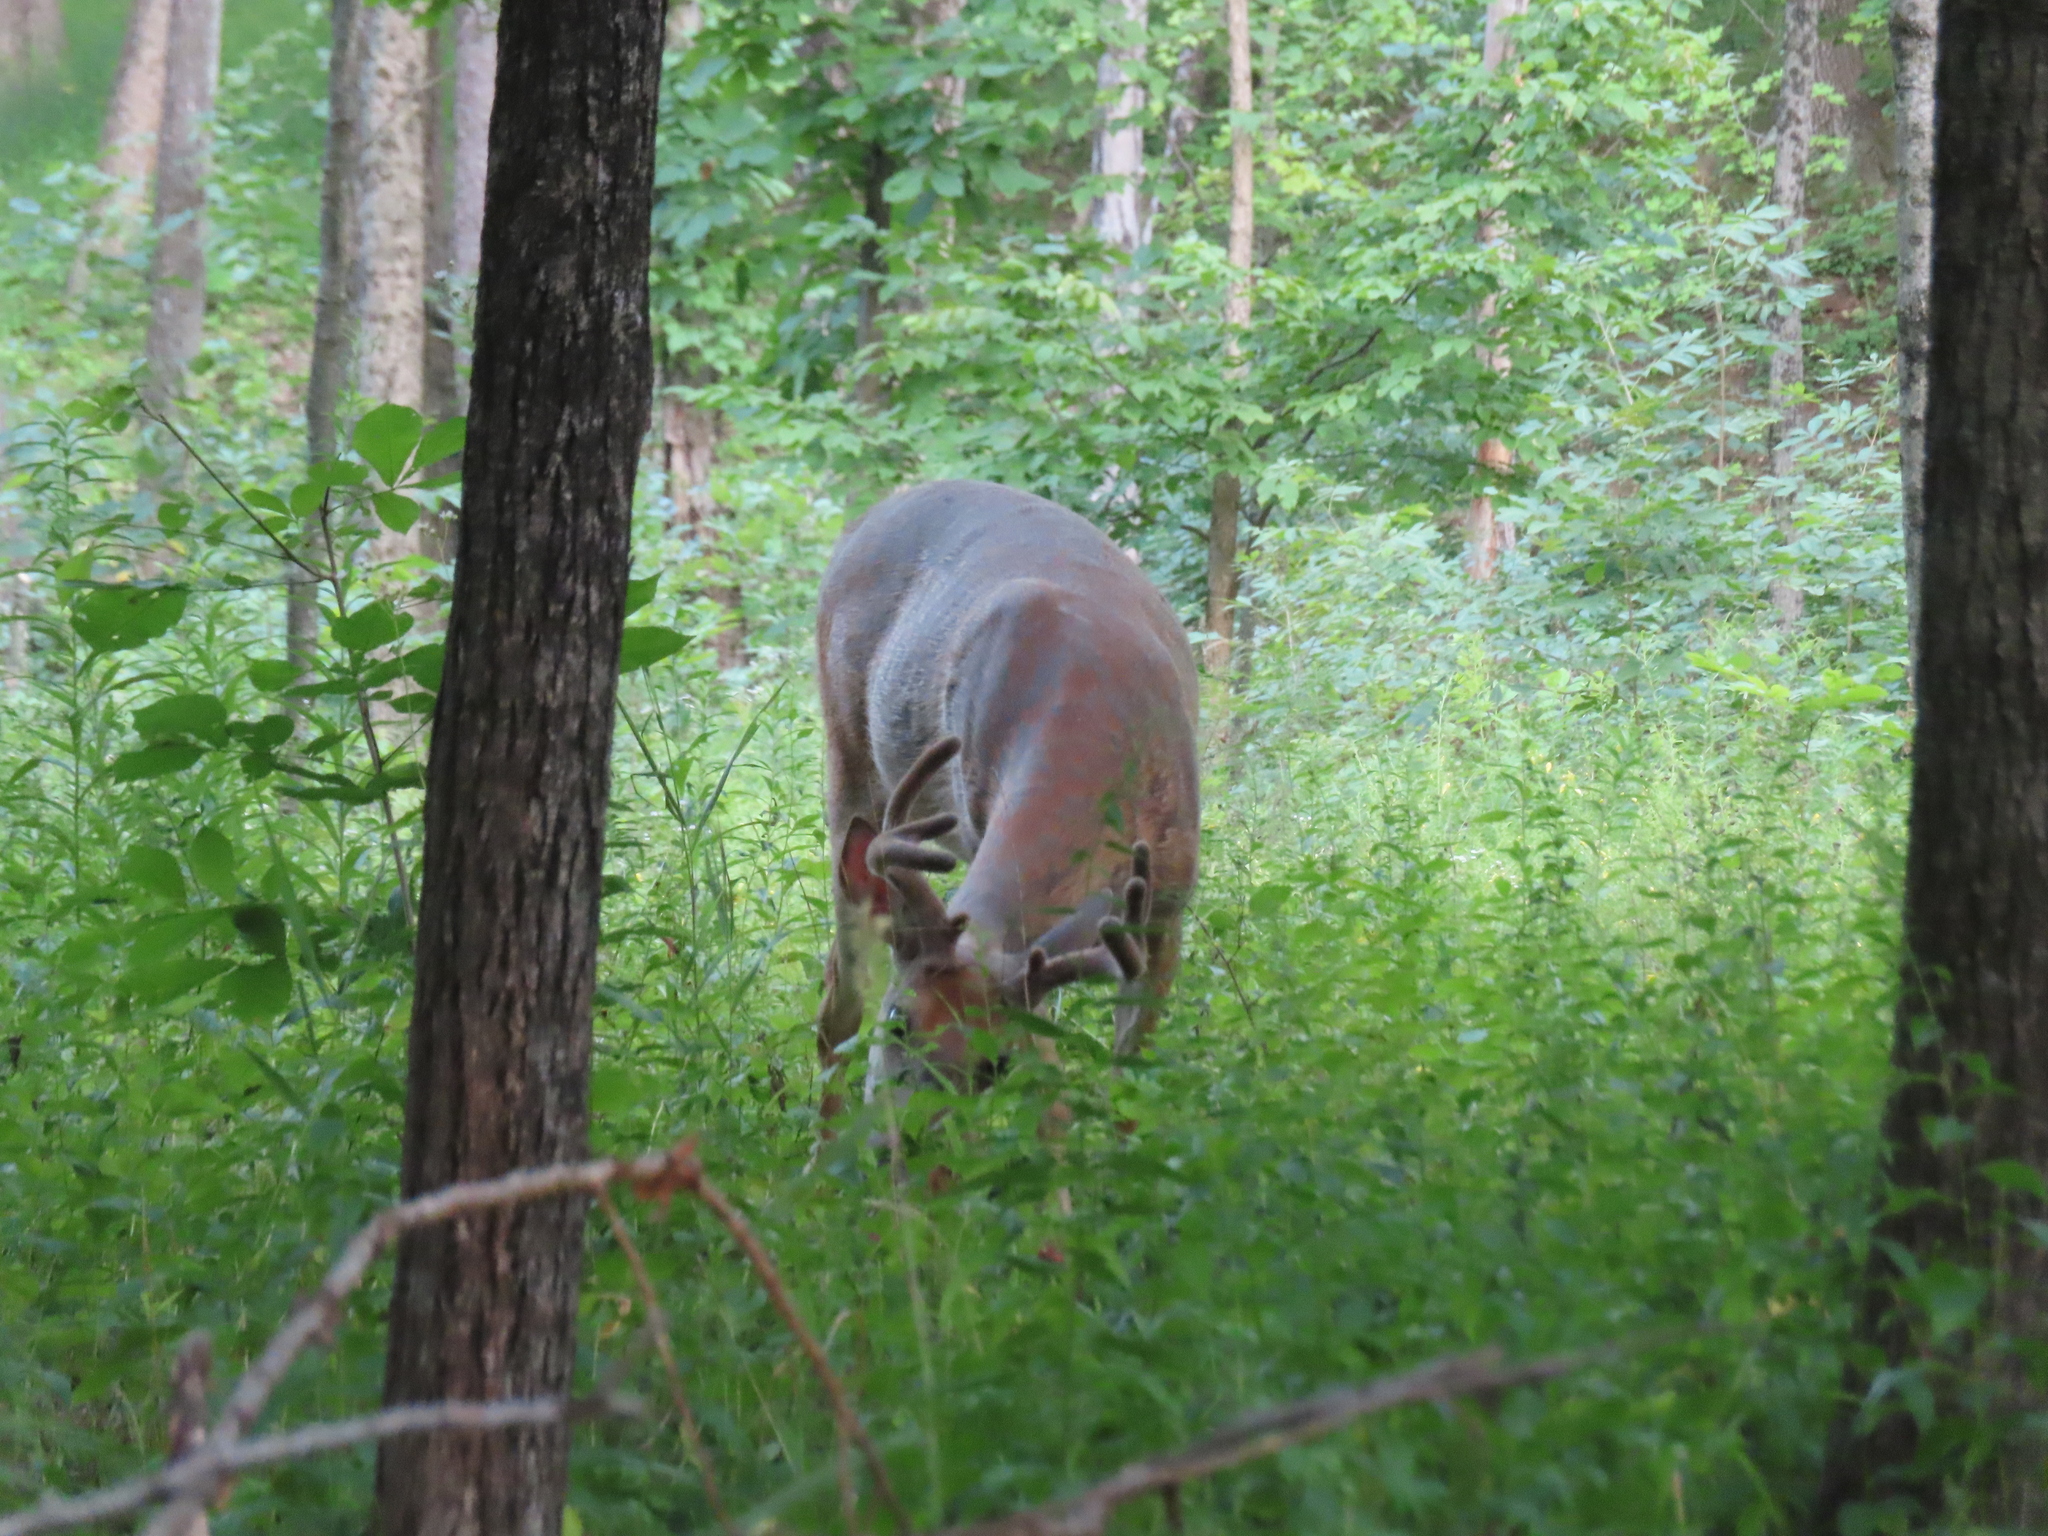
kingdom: Animalia
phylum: Chordata
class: Mammalia
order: Artiodactyla
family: Cervidae
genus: Odocoileus
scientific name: Odocoileus virginianus
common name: White-tailed deer
